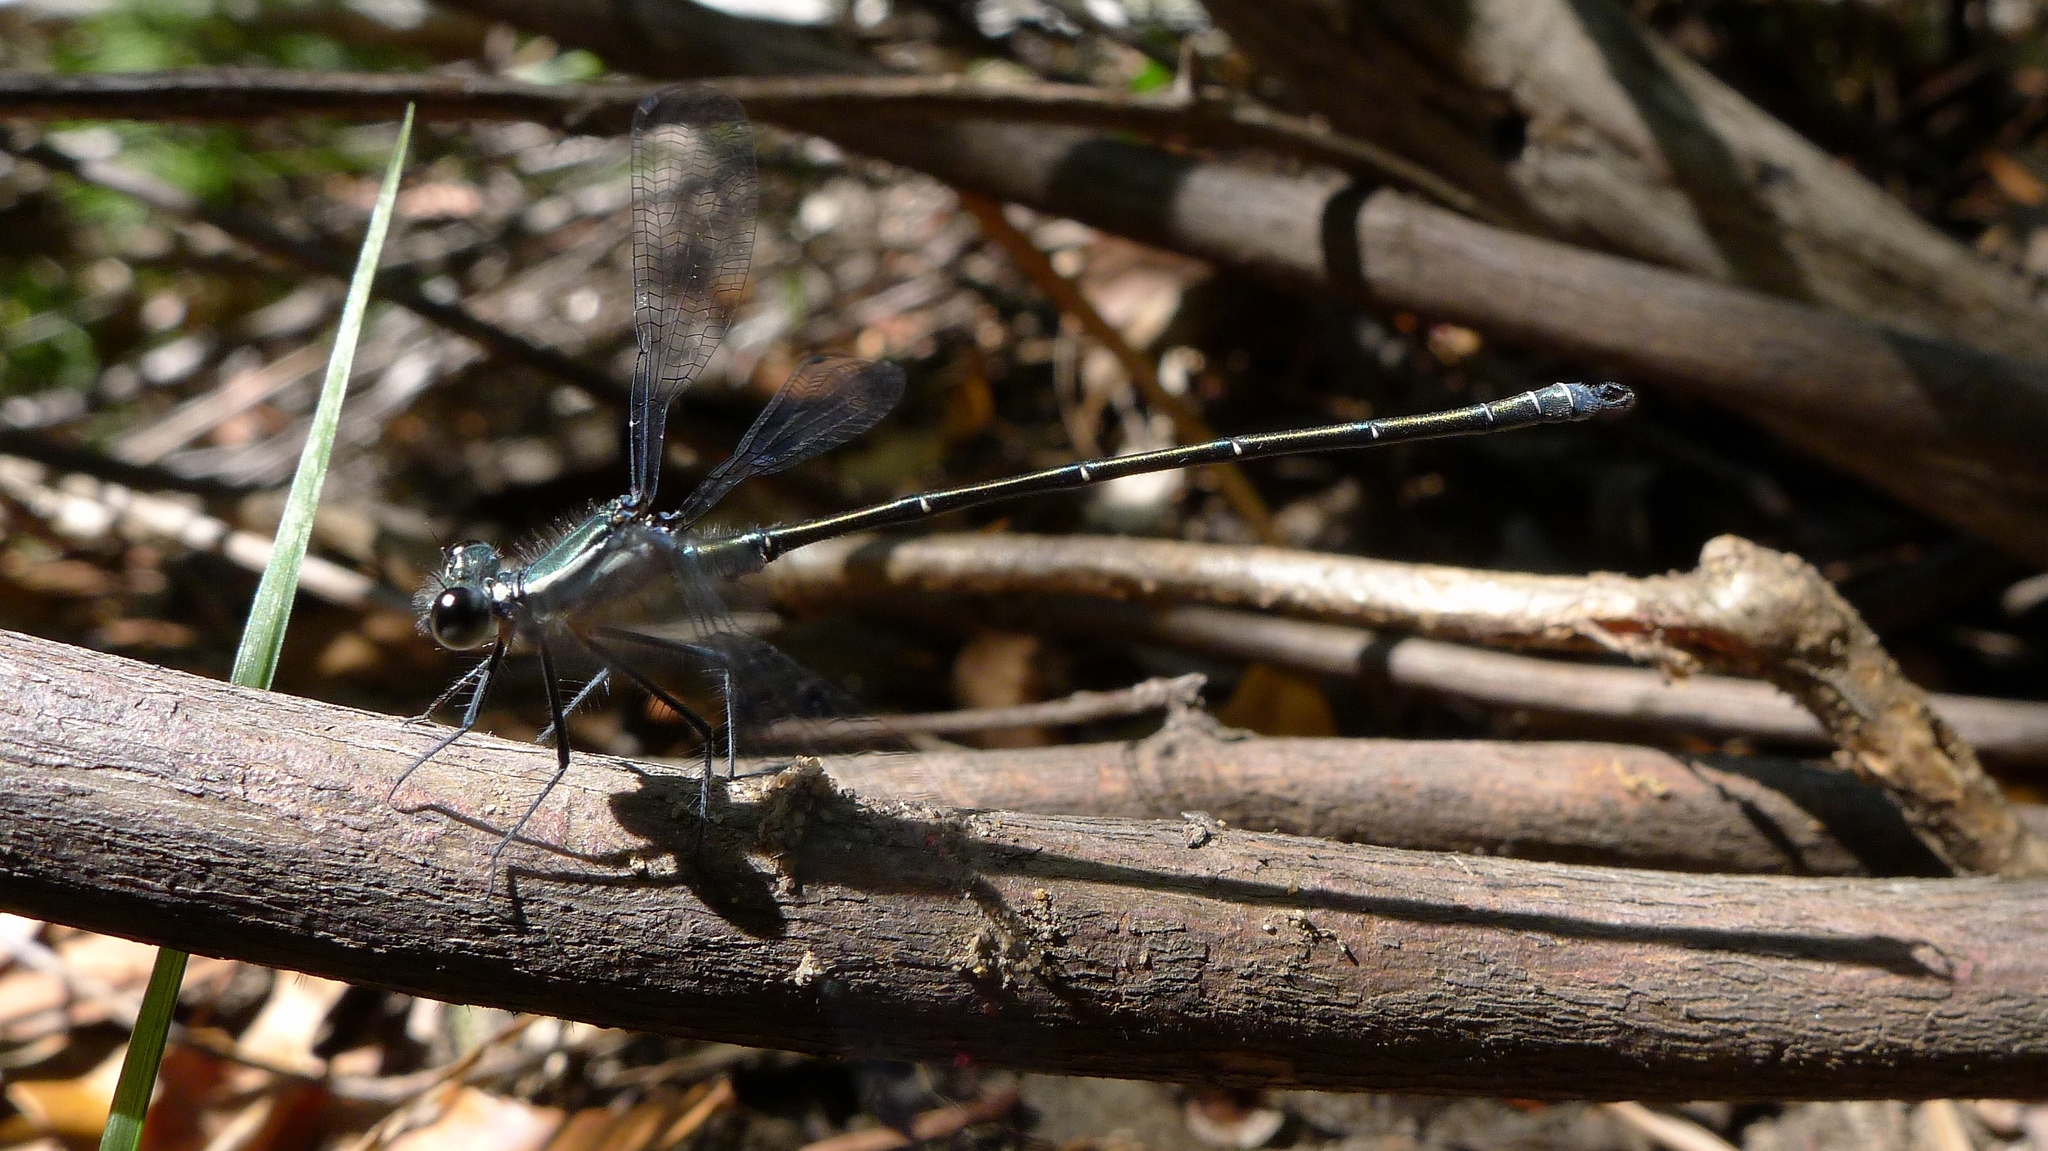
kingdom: Animalia
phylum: Arthropoda
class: Insecta
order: Odonata
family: Argiolestidae
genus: Austroargiolestes
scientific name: Austroargiolestes icteromelas
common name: Common flatwing
